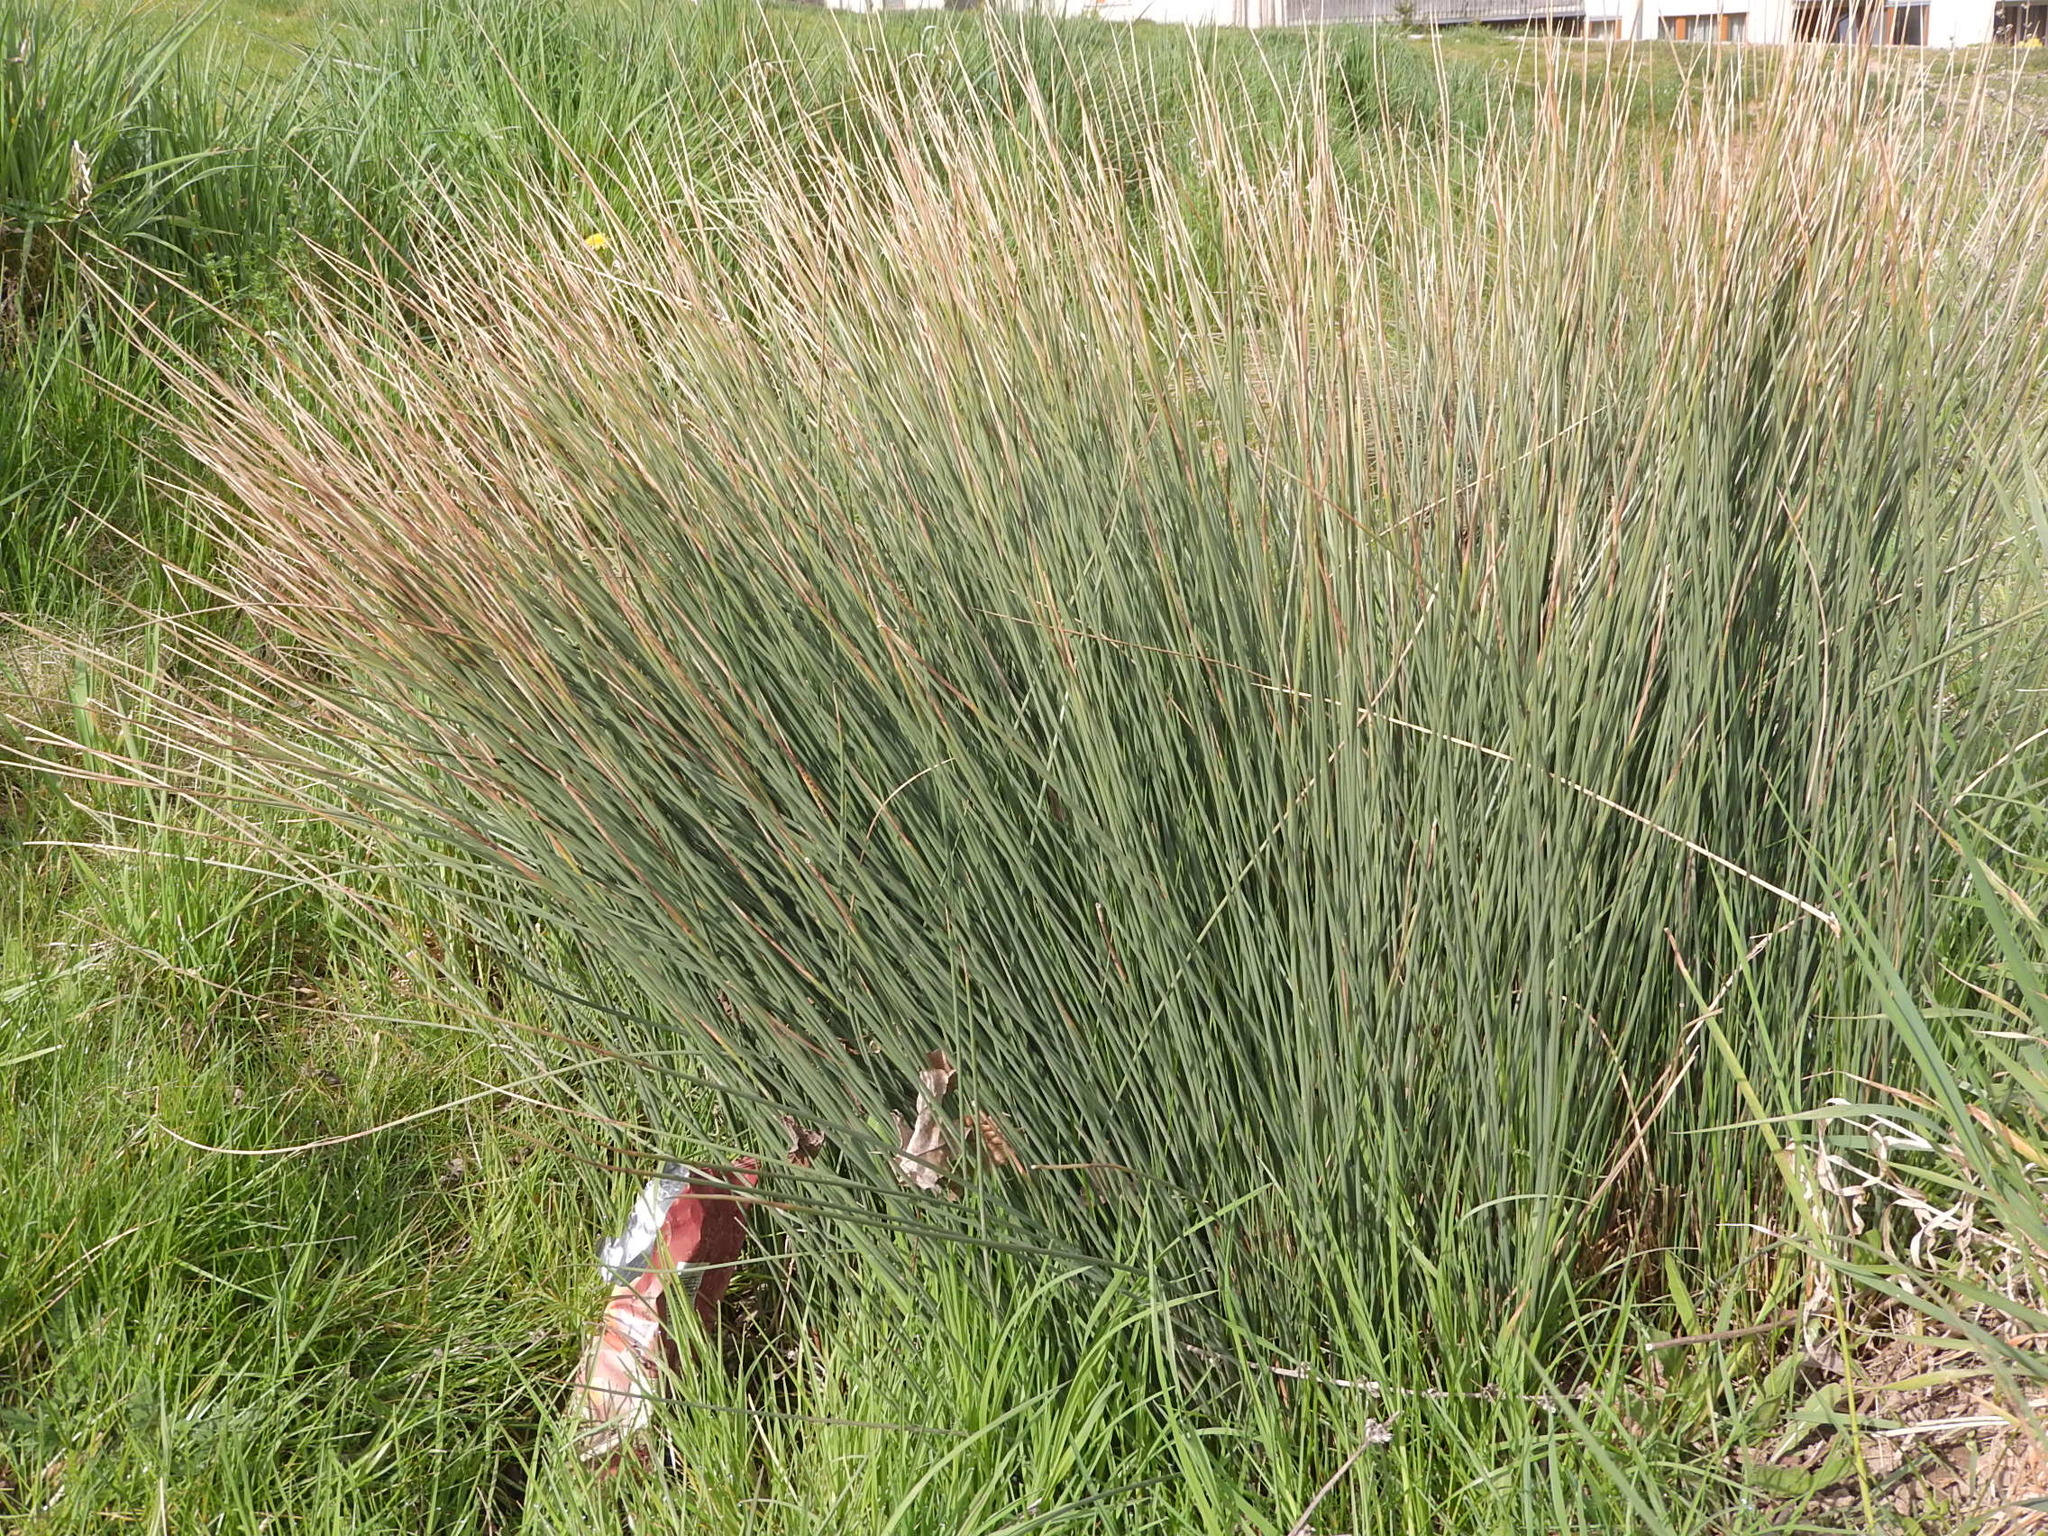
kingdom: Plantae
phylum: Tracheophyta
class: Liliopsida
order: Poales
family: Juncaceae
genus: Juncus
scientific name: Juncus inflexus
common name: Hard rush
